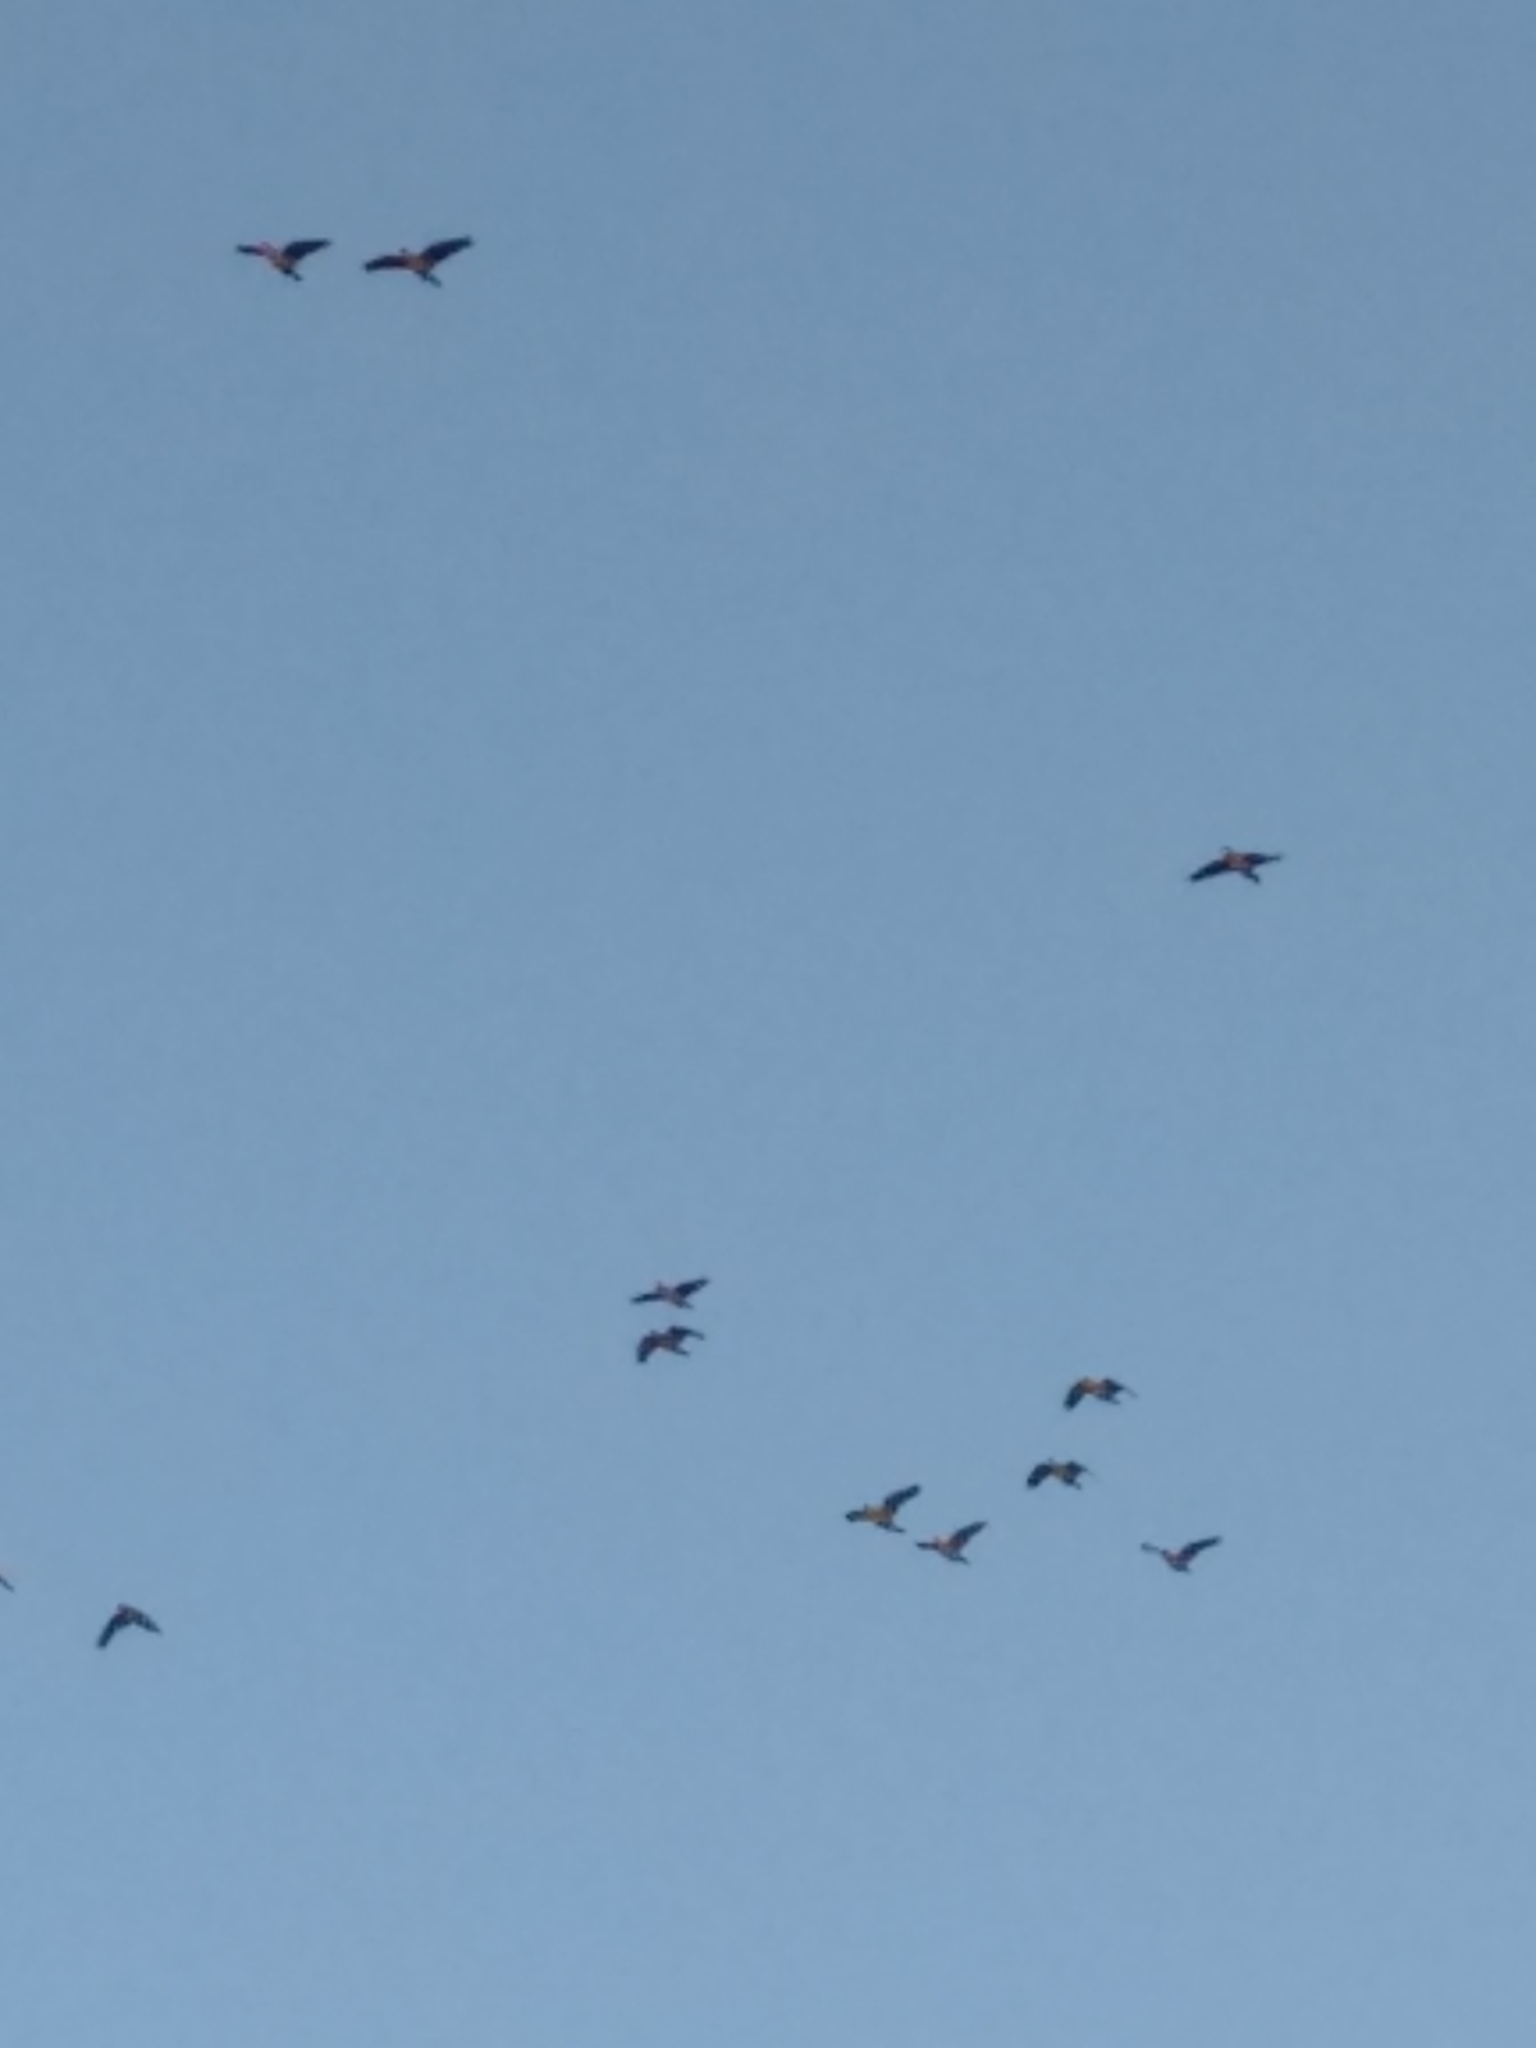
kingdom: Animalia
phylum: Chordata
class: Aves
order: Psittaciformes
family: Psittacidae
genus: Amazona
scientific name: Amazona
